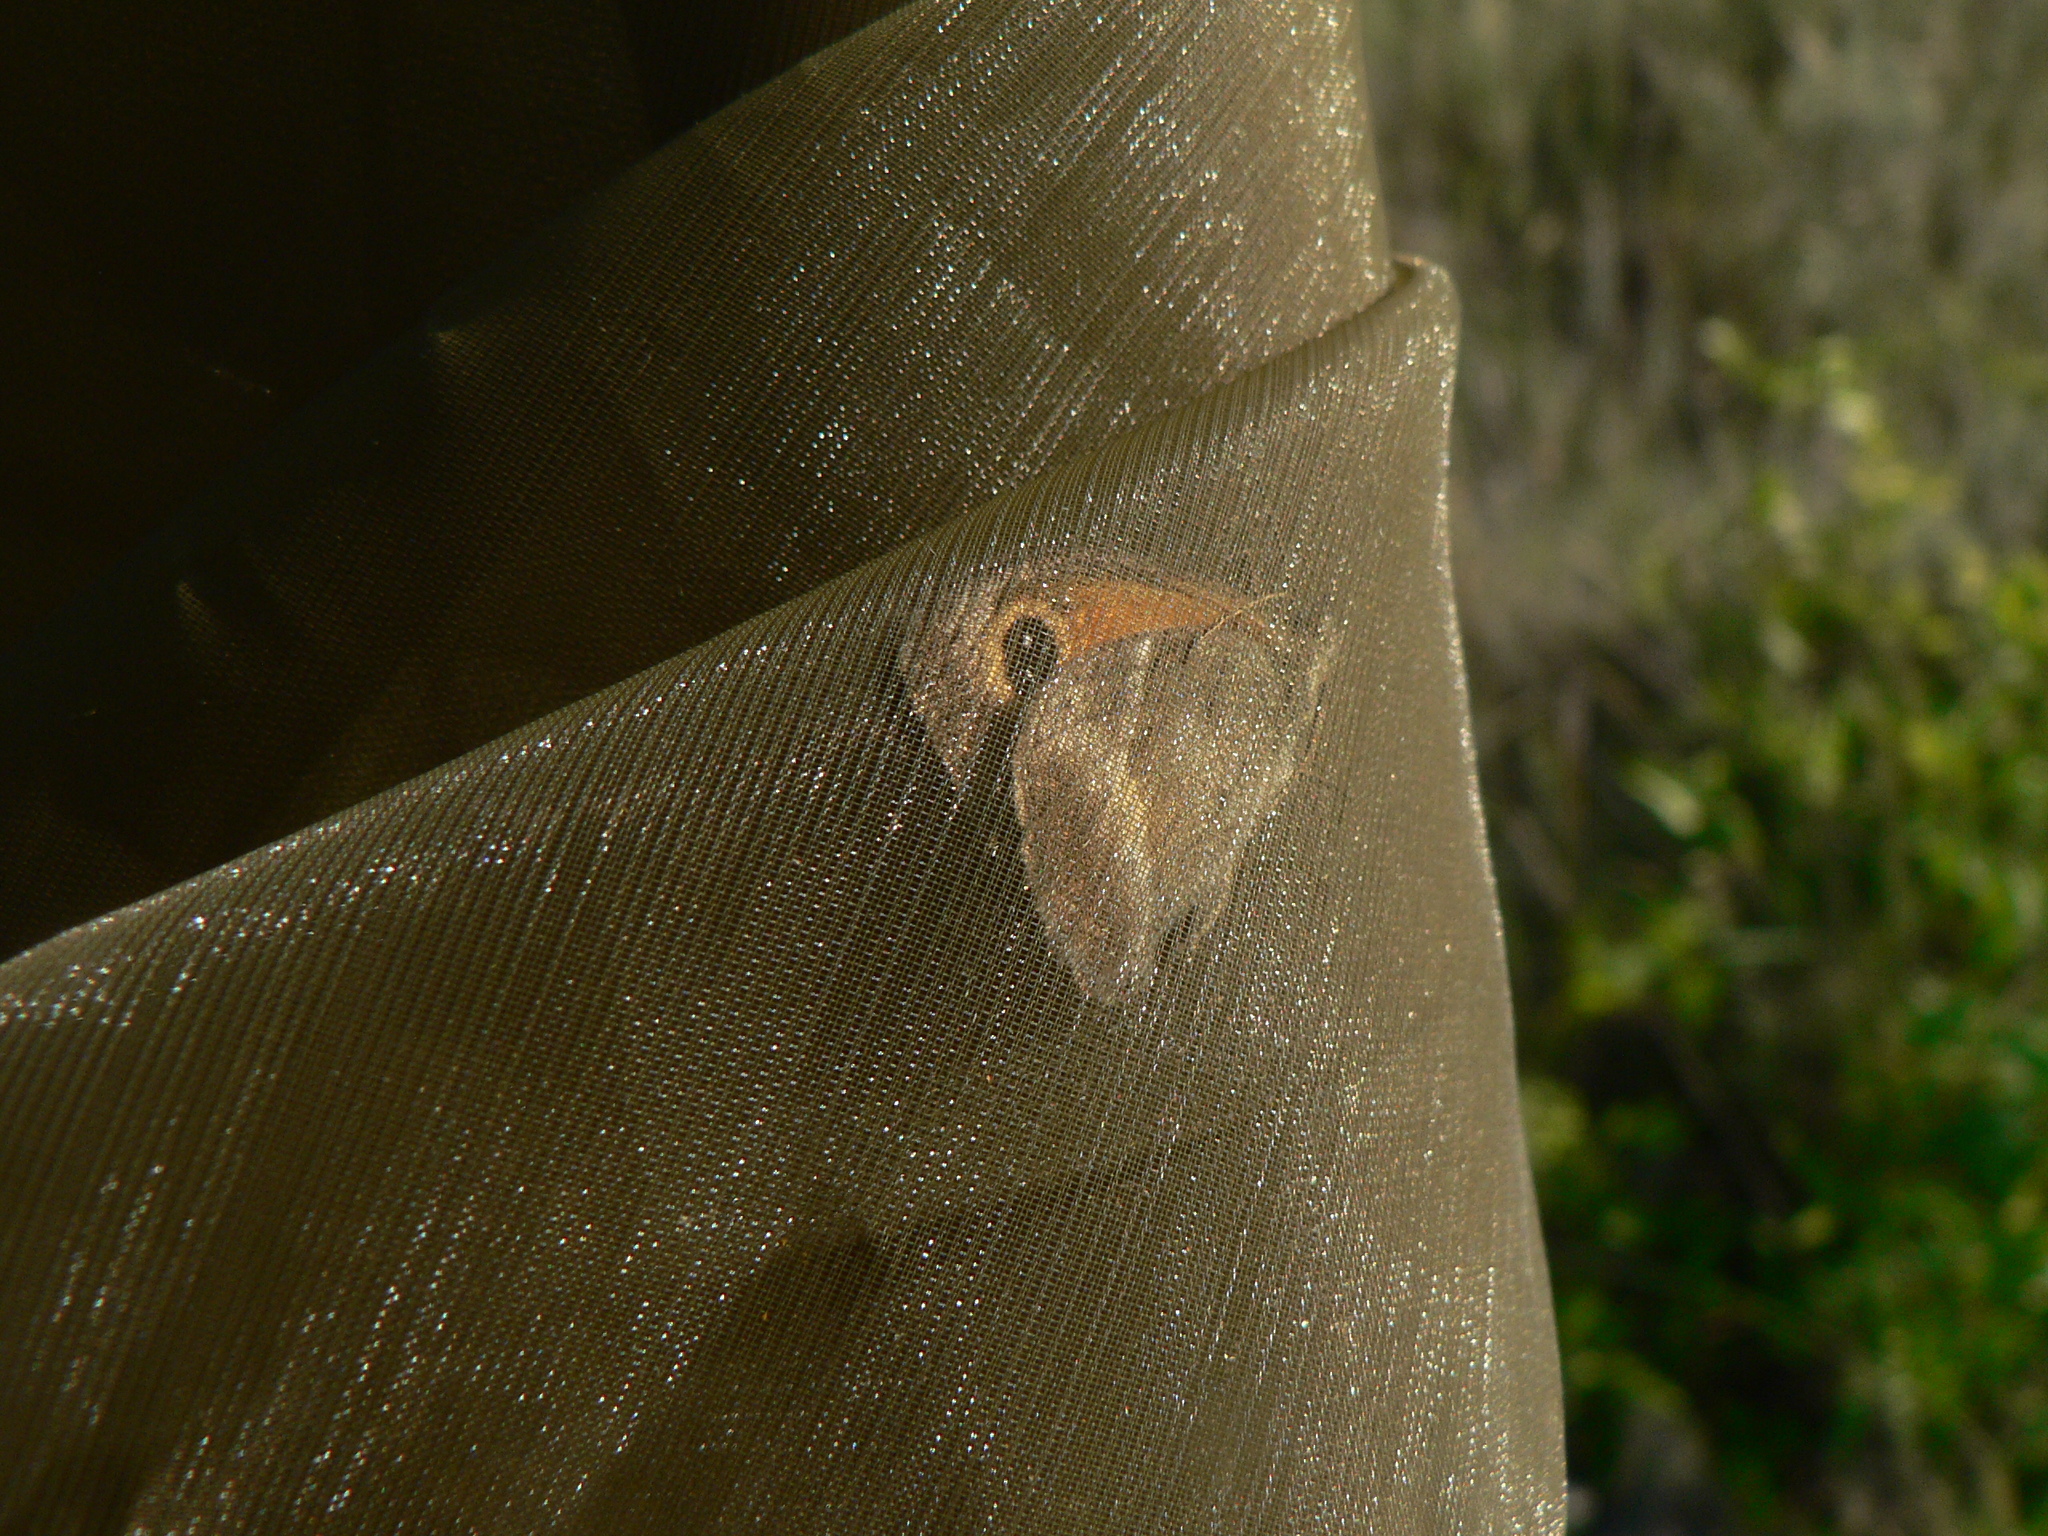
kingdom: Animalia
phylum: Arthropoda
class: Insecta
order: Lepidoptera
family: Nymphalidae
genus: Pyronia
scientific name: Pyronia cecilia
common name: Southern gatekeeper
